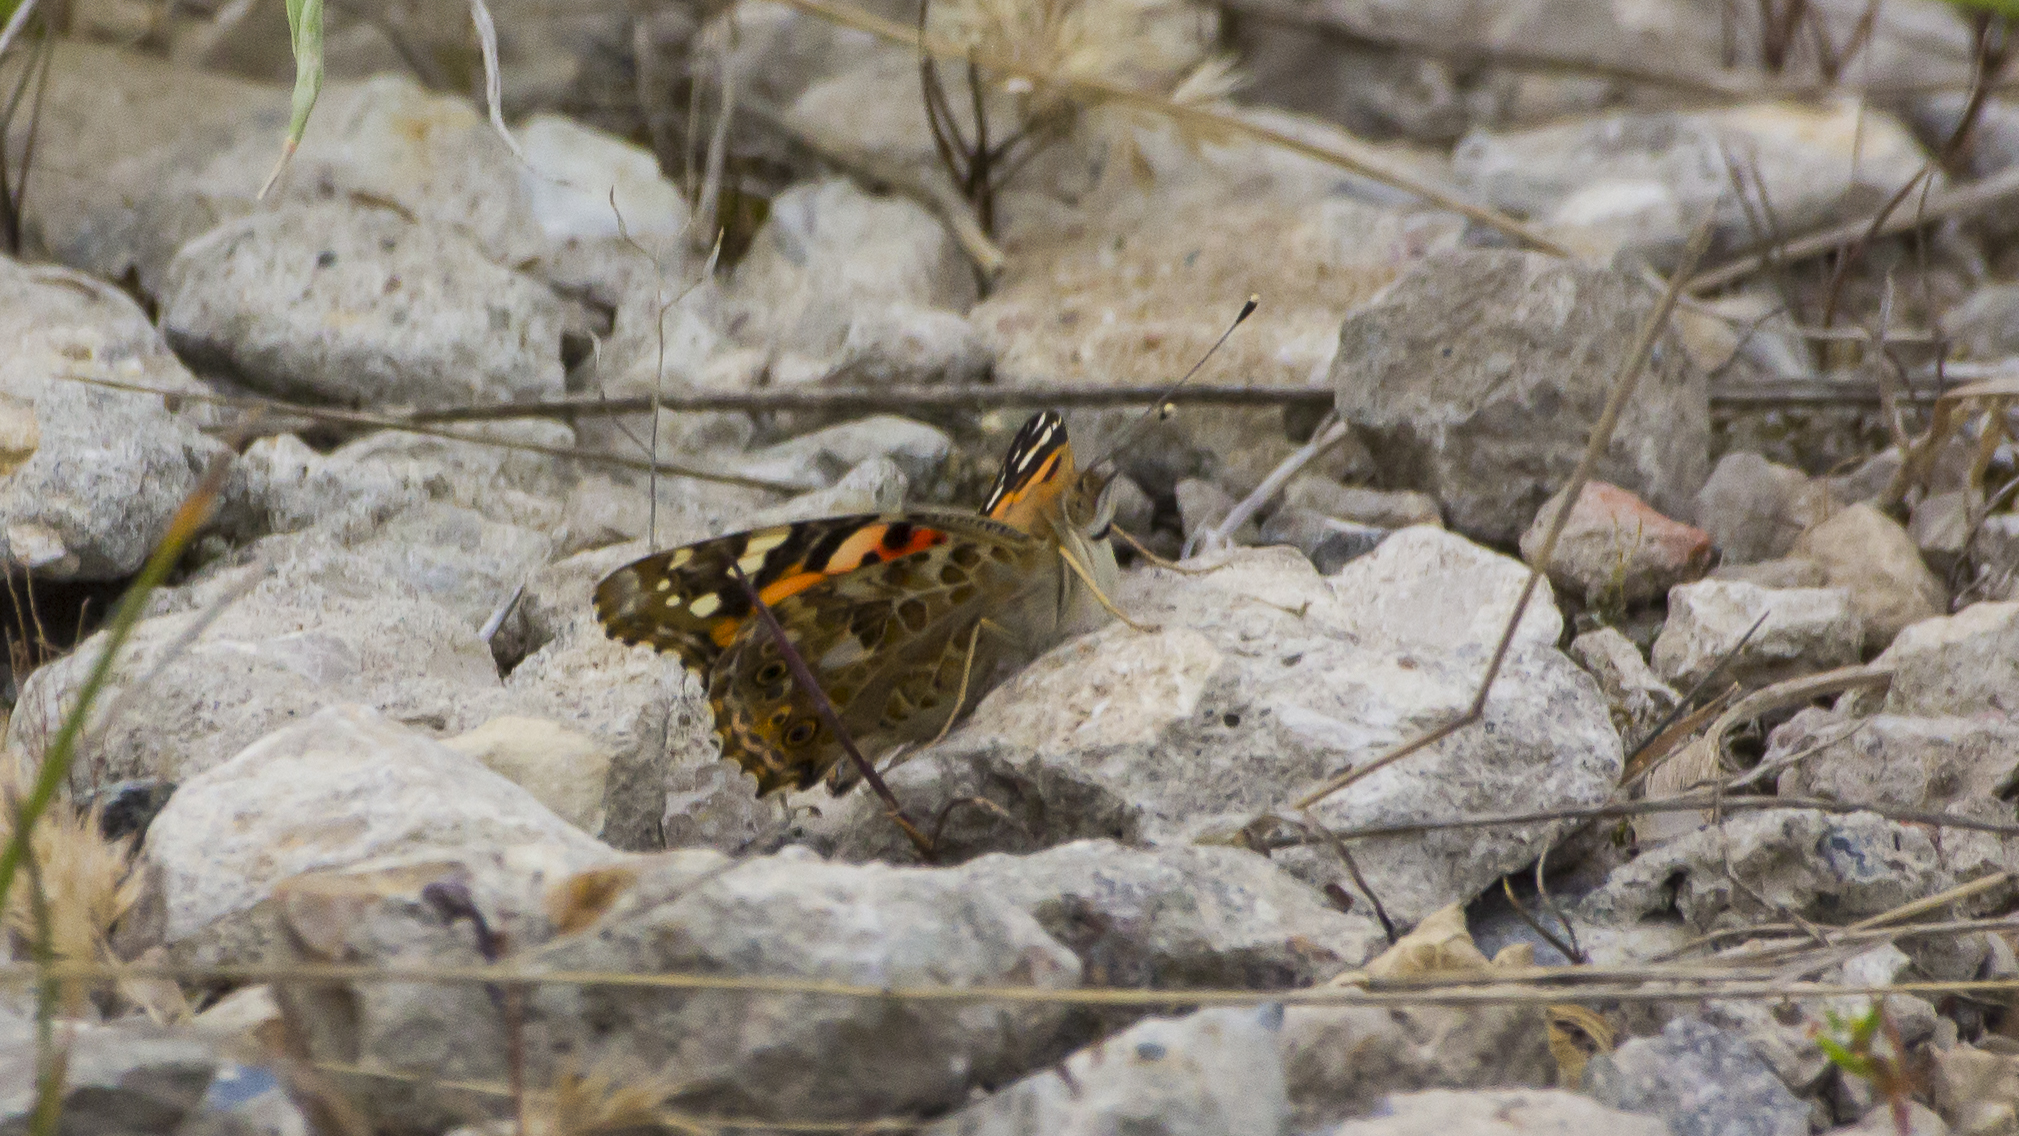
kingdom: Animalia
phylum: Arthropoda
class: Insecta
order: Lepidoptera
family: Nymphalidae
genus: Vanessa
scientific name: Vanessa cardui
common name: Painted lady
